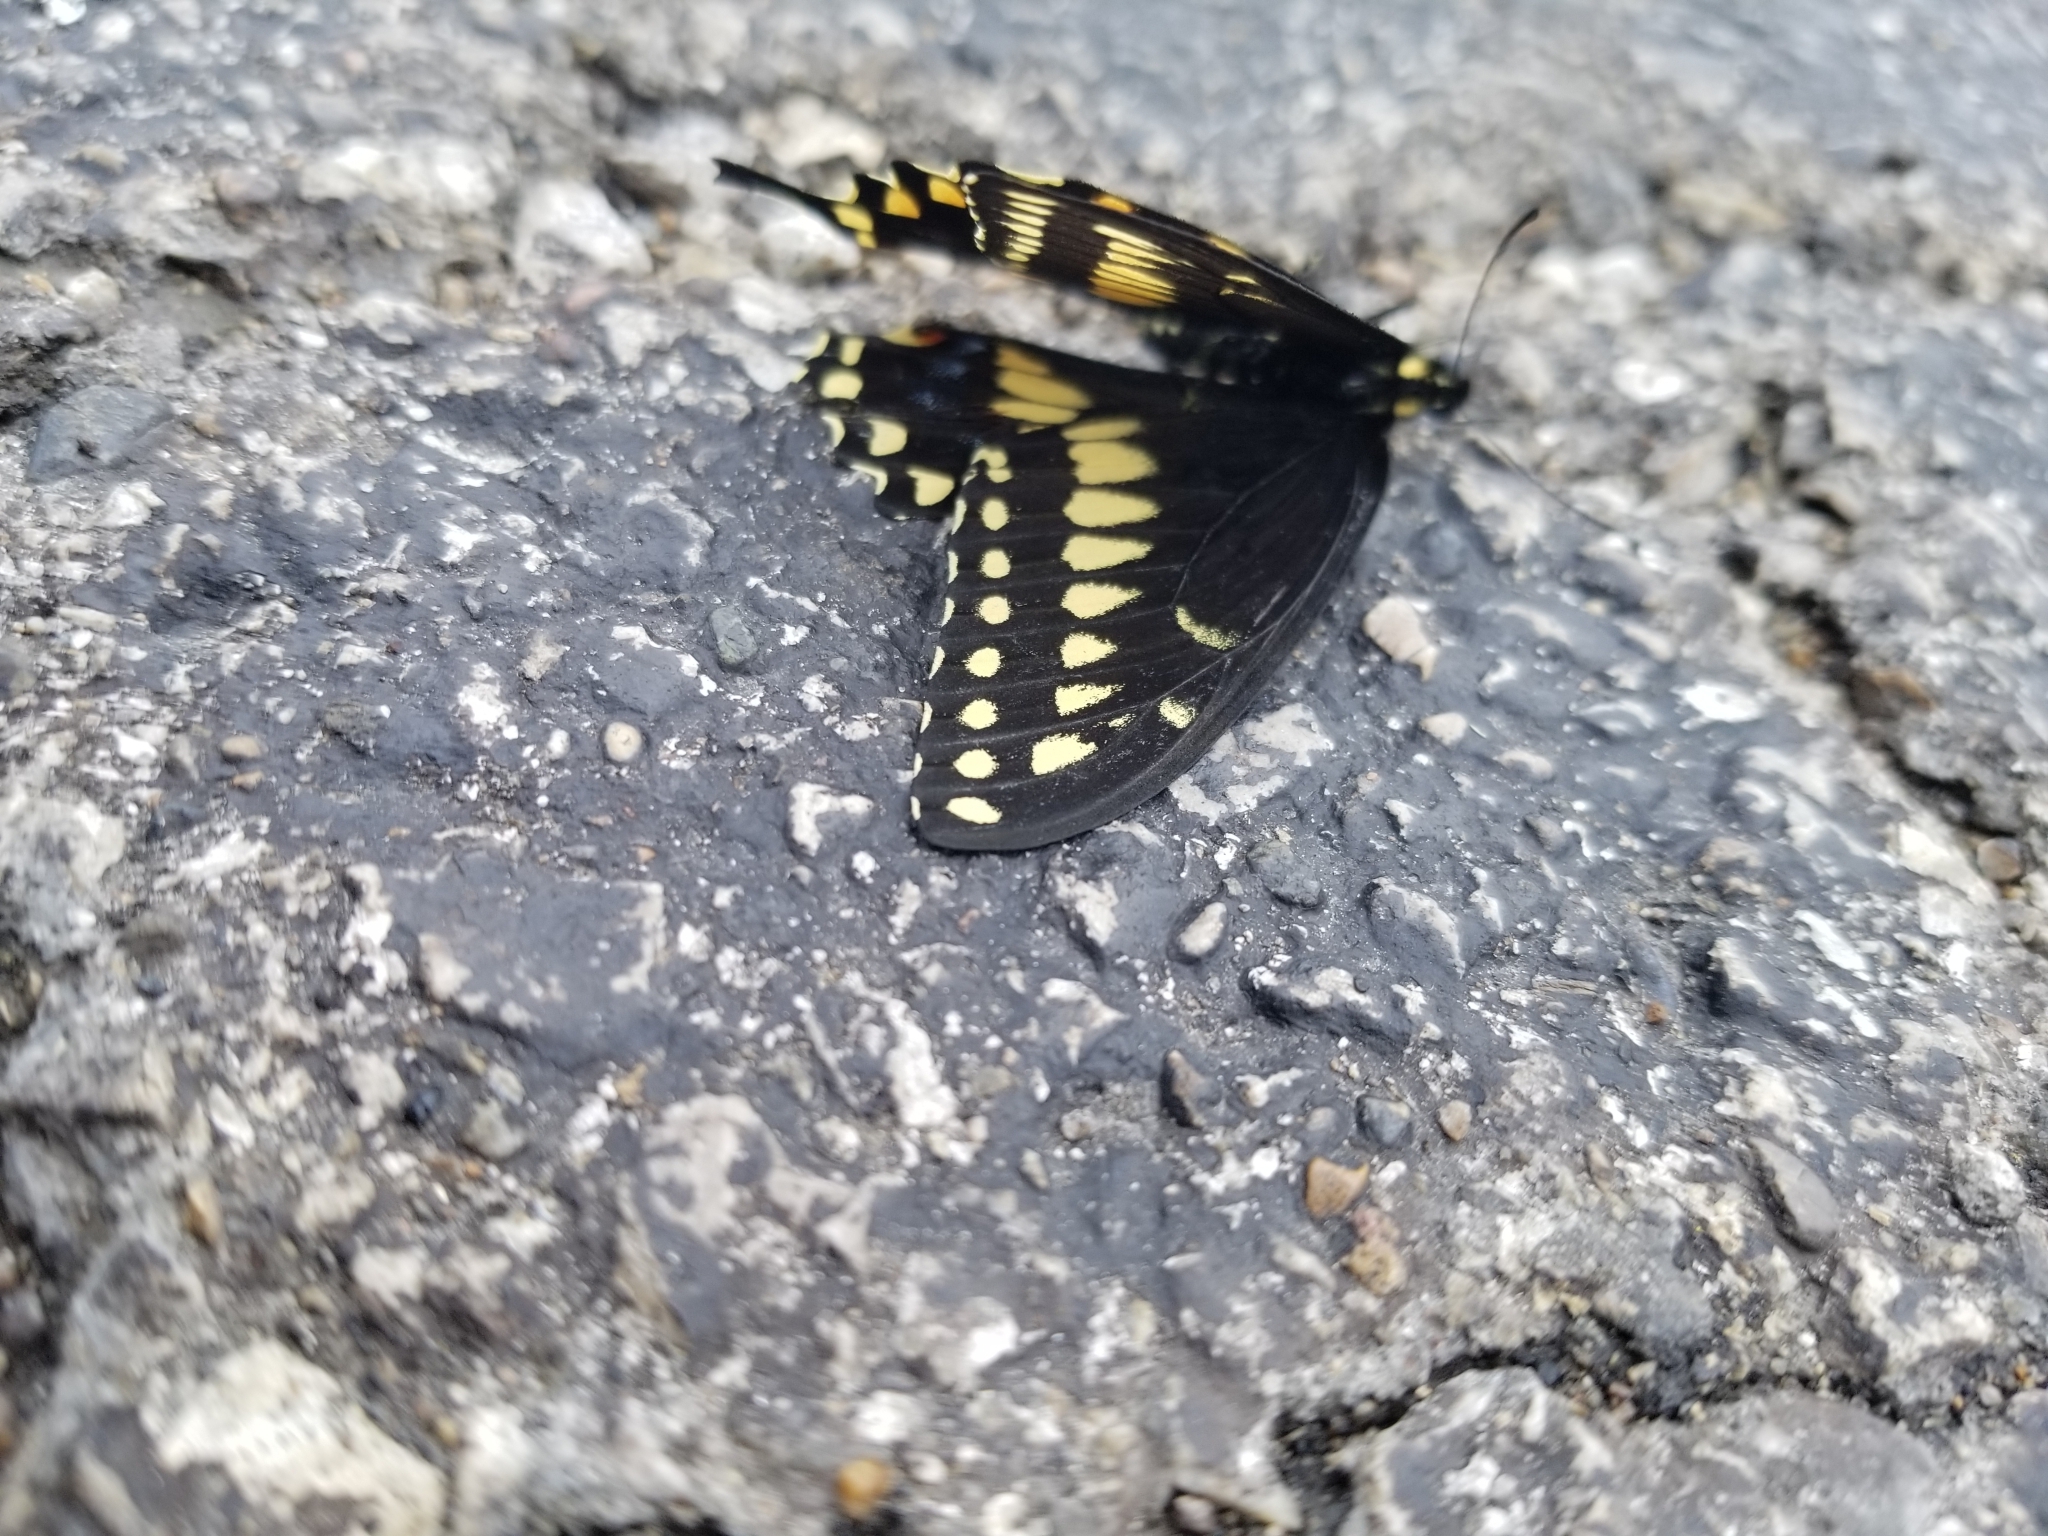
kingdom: Animalia
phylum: Arthropoda
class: Insecta
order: Lepidoptera
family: Papilionidae
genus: Papilio
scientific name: Papilio polyxenes
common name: Black swallowtail
